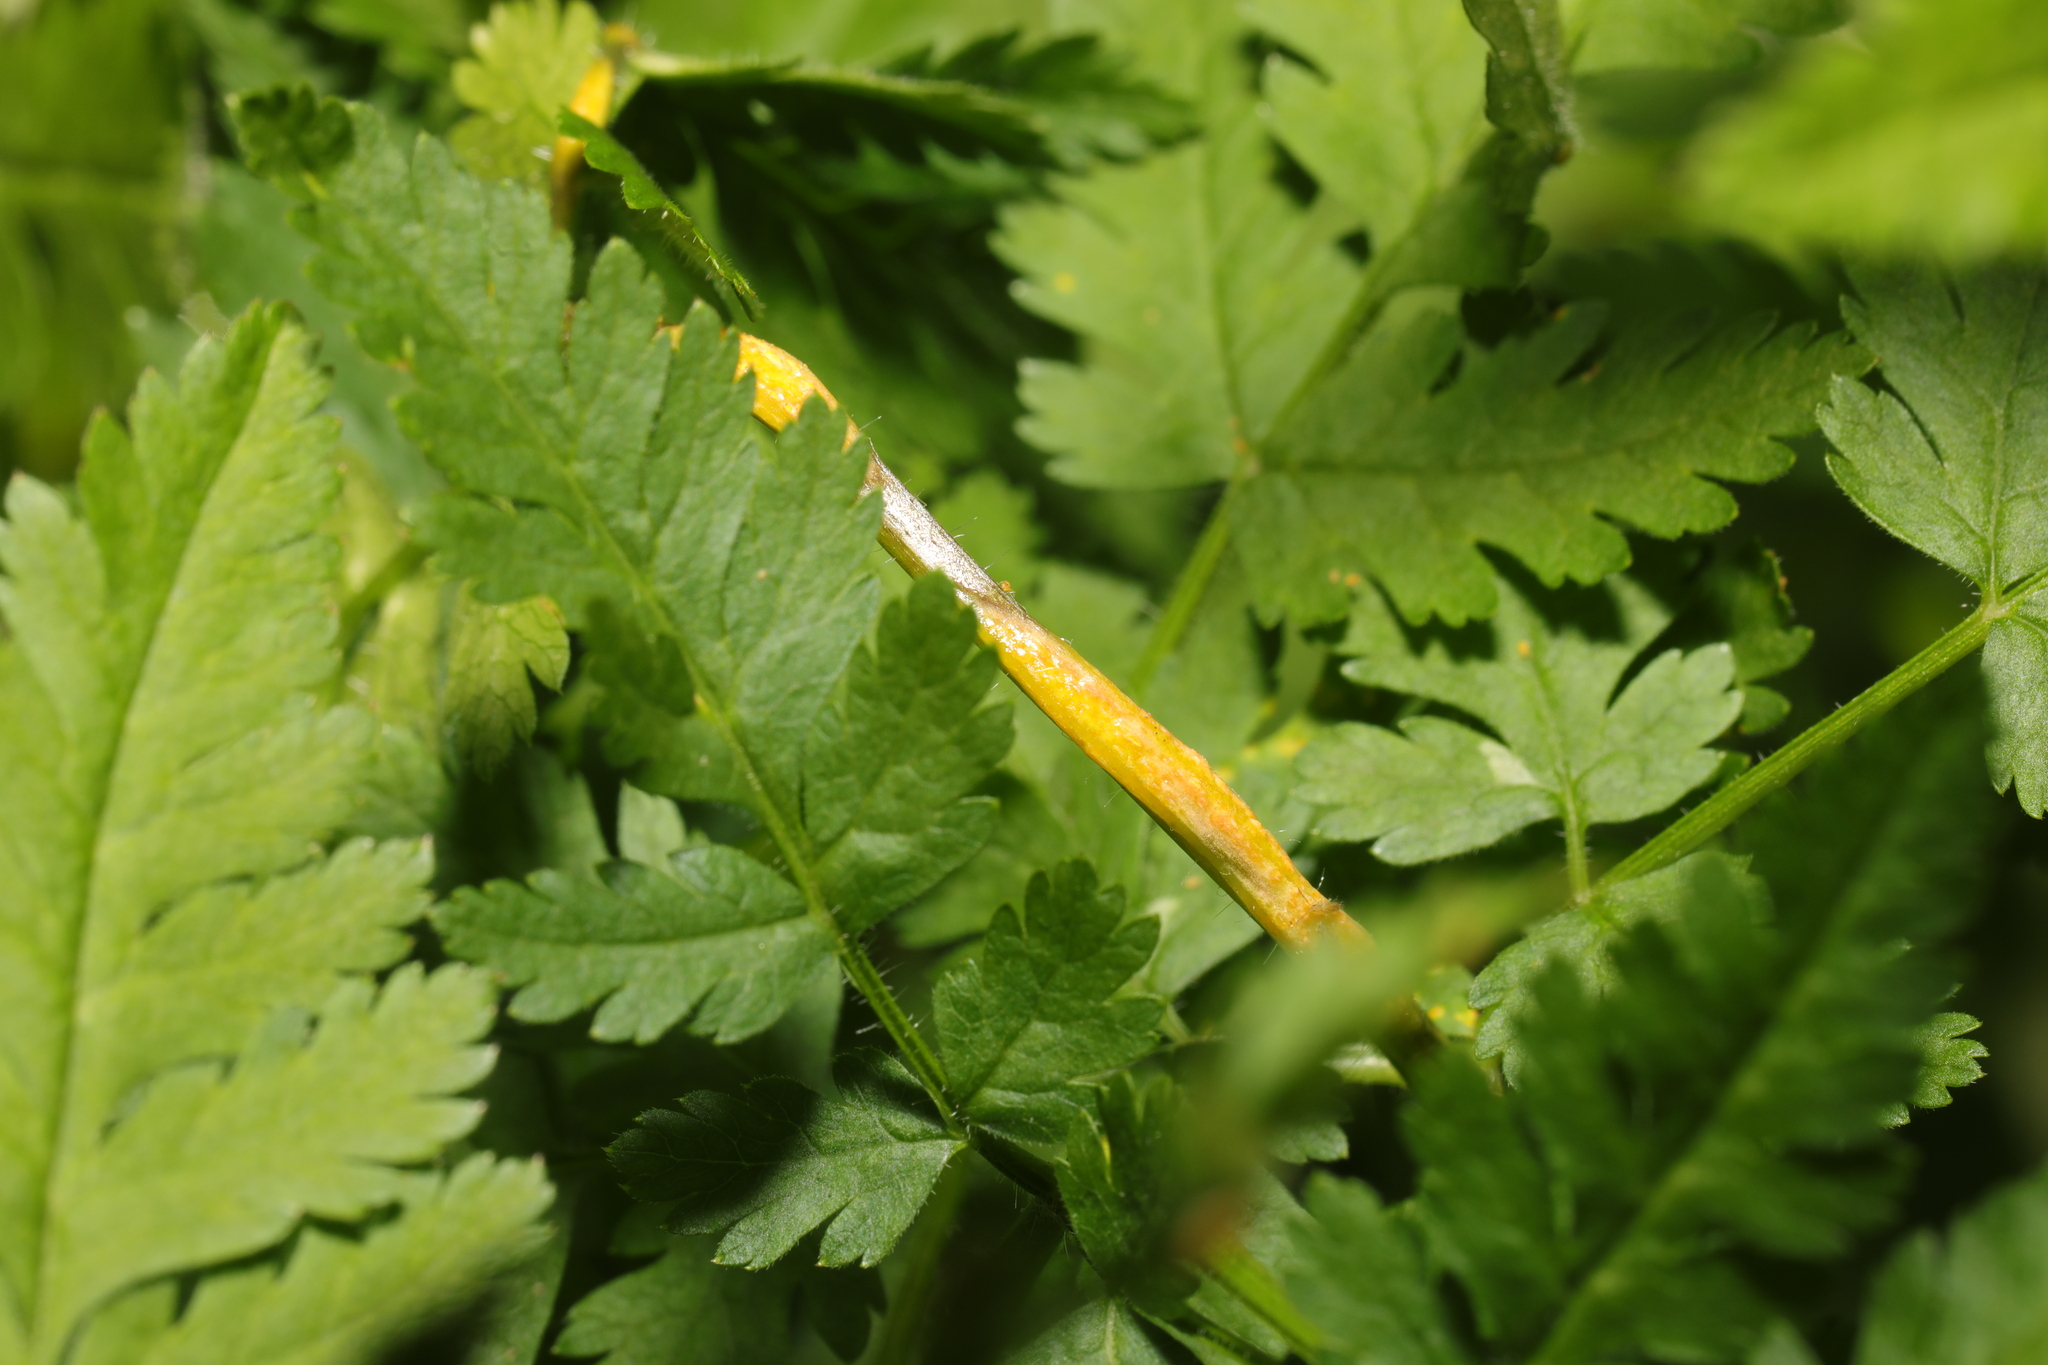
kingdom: Fungi
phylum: Basidiomycota
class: Pucciniomycetes
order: Pucciniales
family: Pucciniaceae
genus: Puccinia
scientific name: Puccinia chaerophylli
